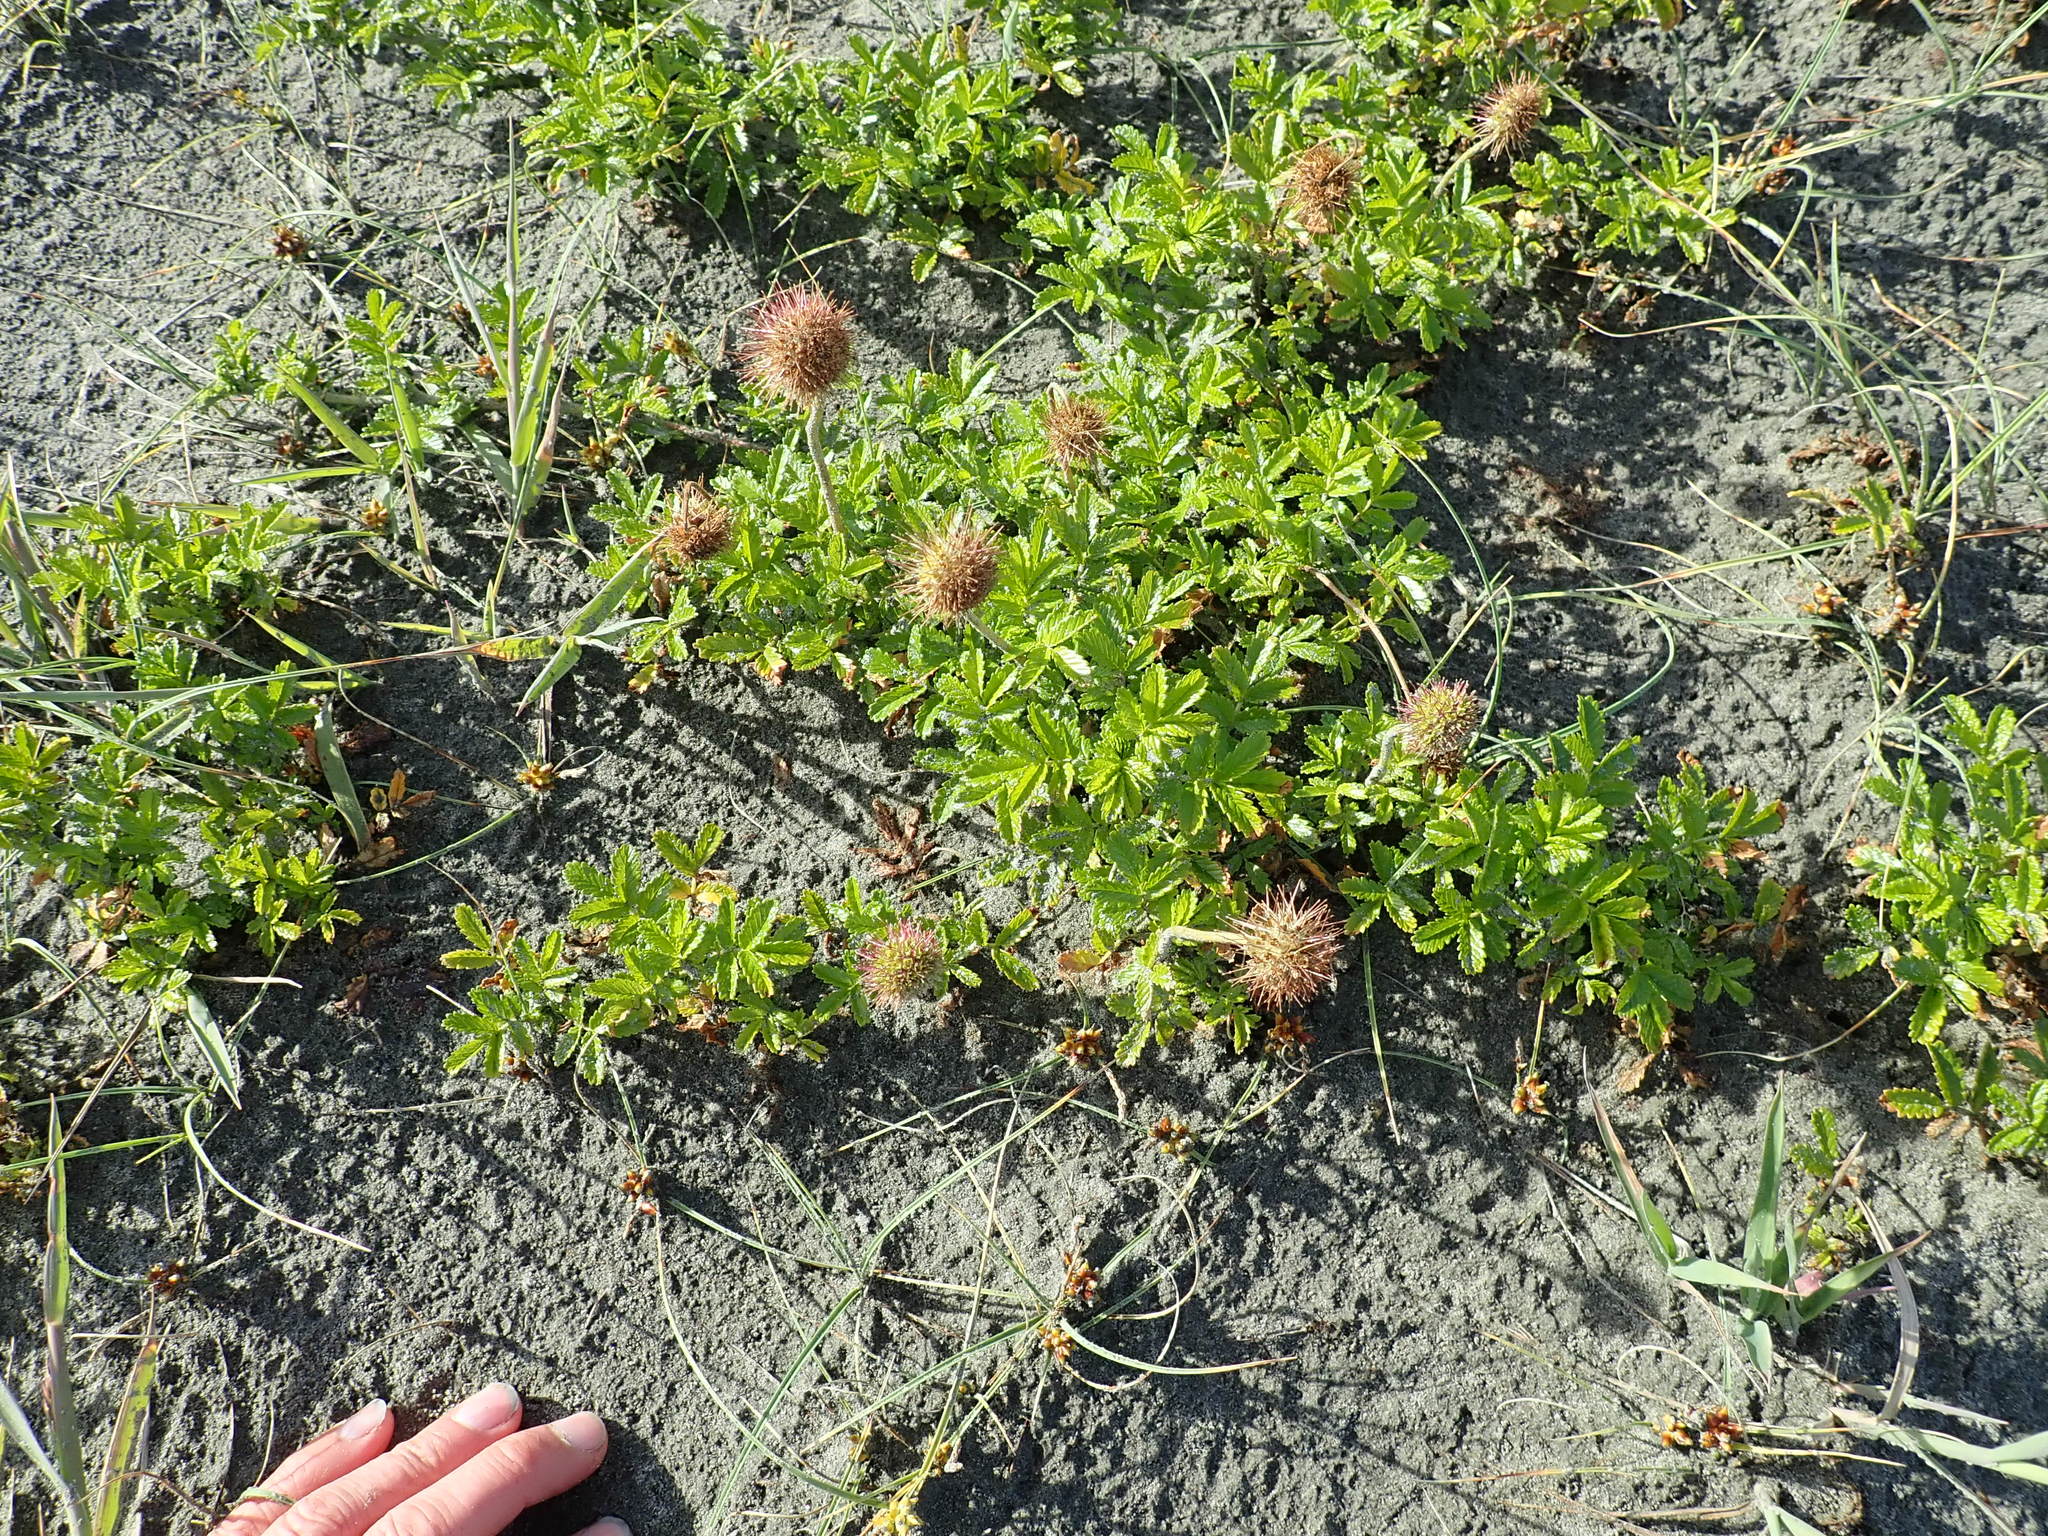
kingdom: Plantae
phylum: Tracheophyta
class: Magnoliopsida
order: Rosales
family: Rosaceae
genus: Acaena
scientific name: Acaena novae-zelandiae
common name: Pirri-pirri-bur
